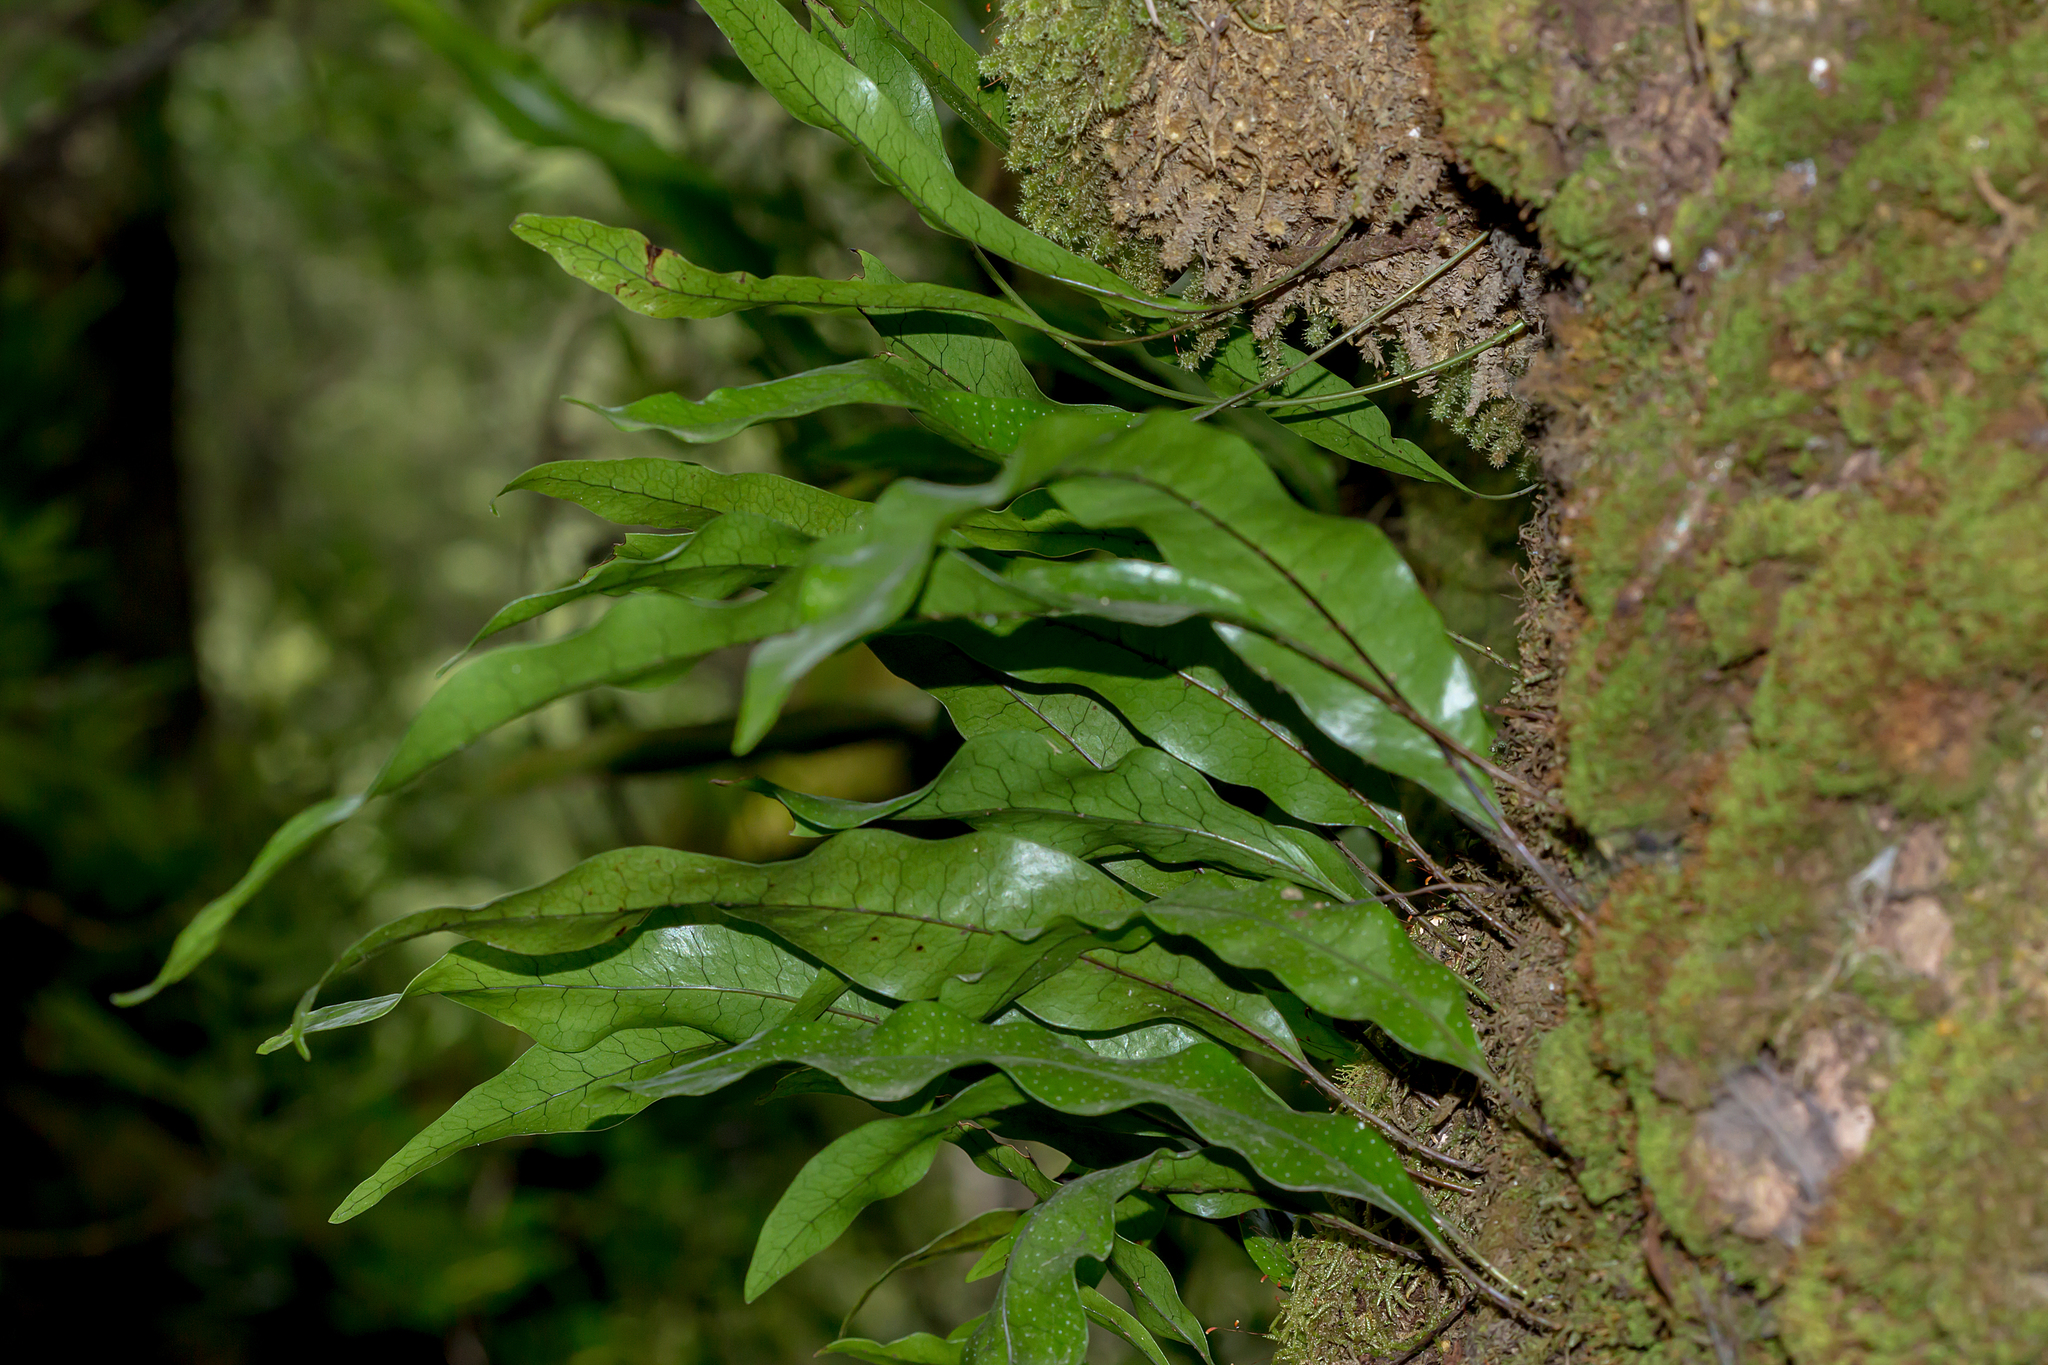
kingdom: Plantae
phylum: Tracheophyta
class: Polypodiopsida
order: Polypodiales
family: Polypodiaceae
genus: Lecanopteris
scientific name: Lecanopteris pustulata
